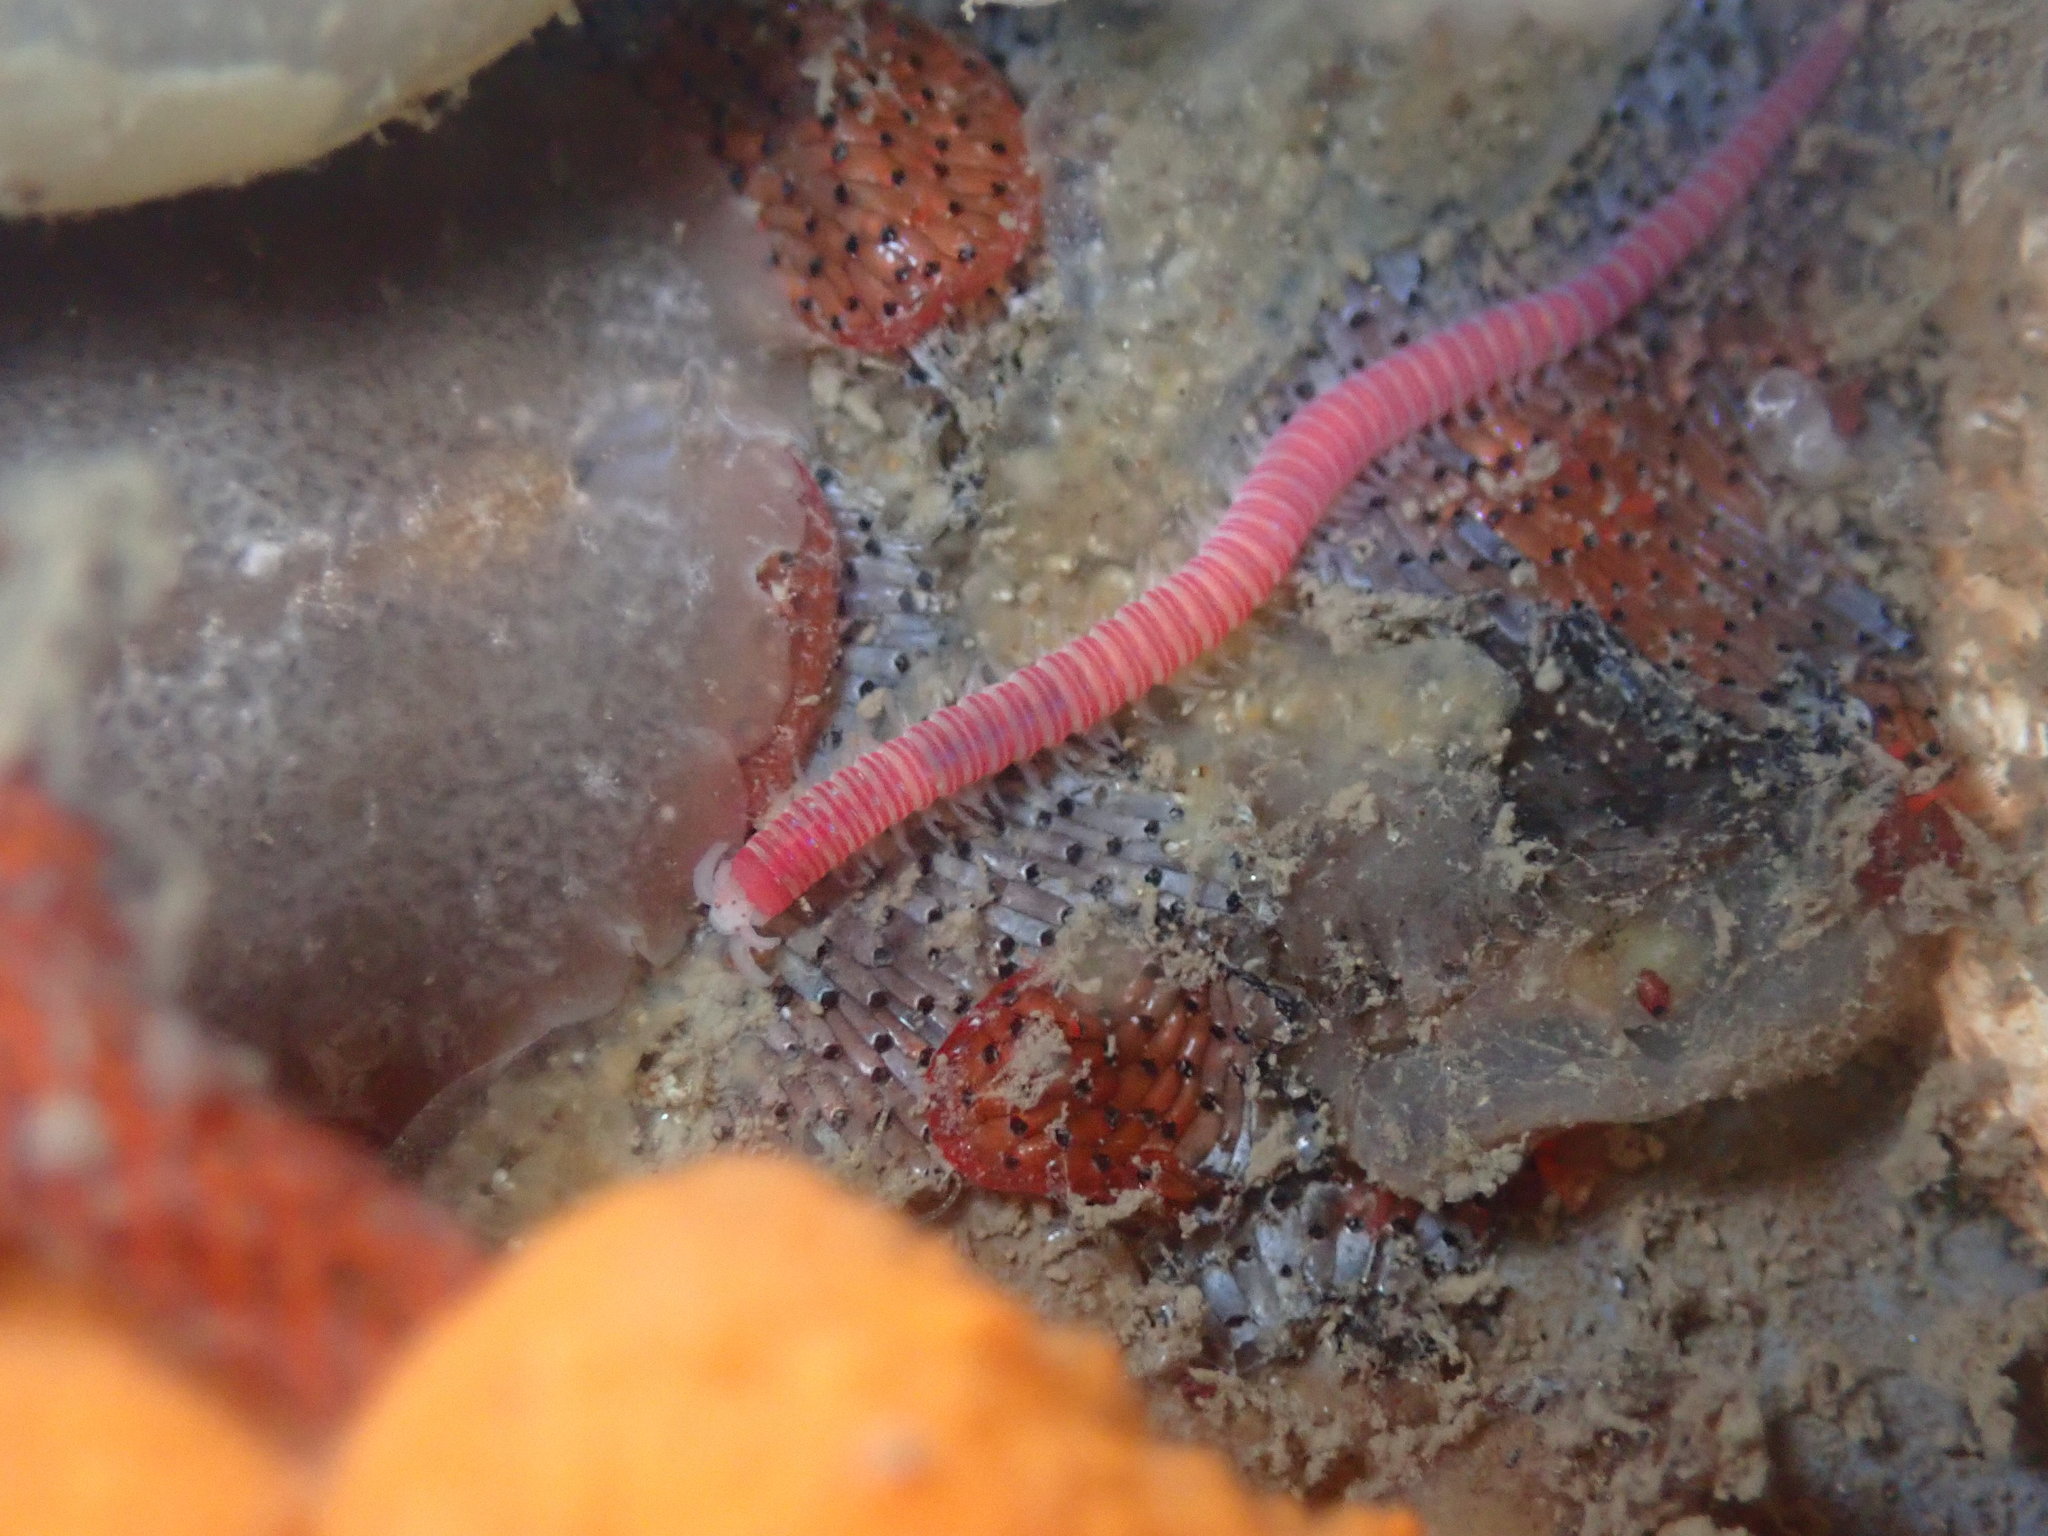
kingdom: Animalia
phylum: Annelida
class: Polychaeta
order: Eunicida
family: Dorvilleidae
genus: Dorvillea
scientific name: Dorvillea moniloceras
